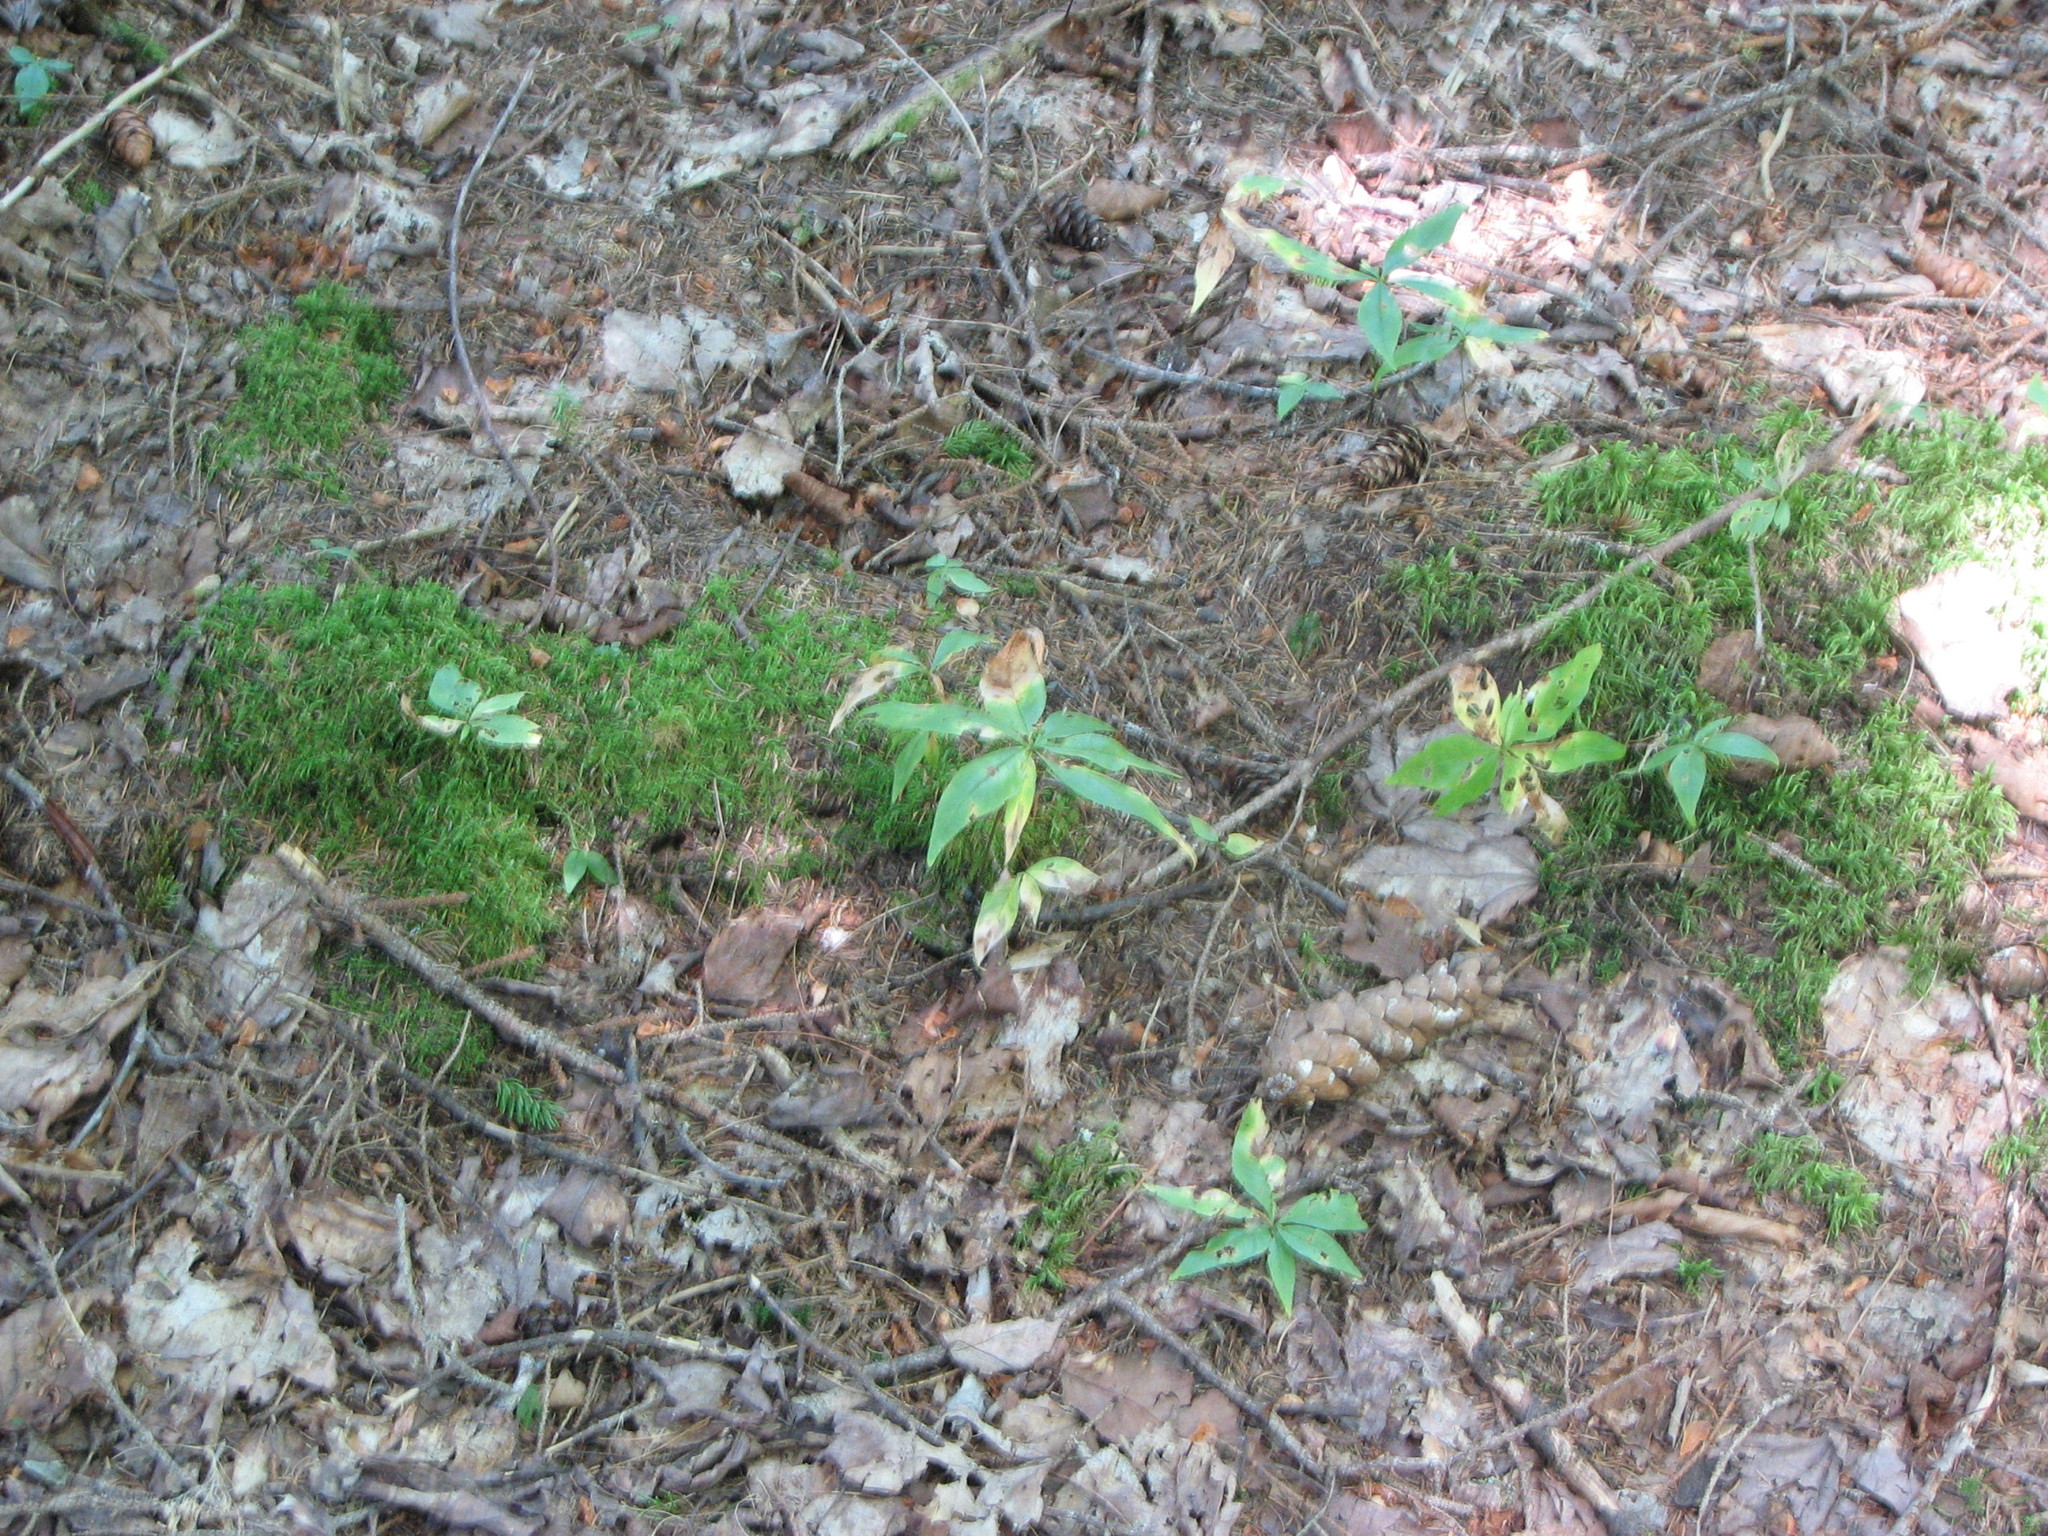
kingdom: Plantae
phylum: Tracheophyta
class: Magnoliopsida
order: Ericales
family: Primulaceae
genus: Lysimachia
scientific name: Lysimachia borealis
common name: American starflower
